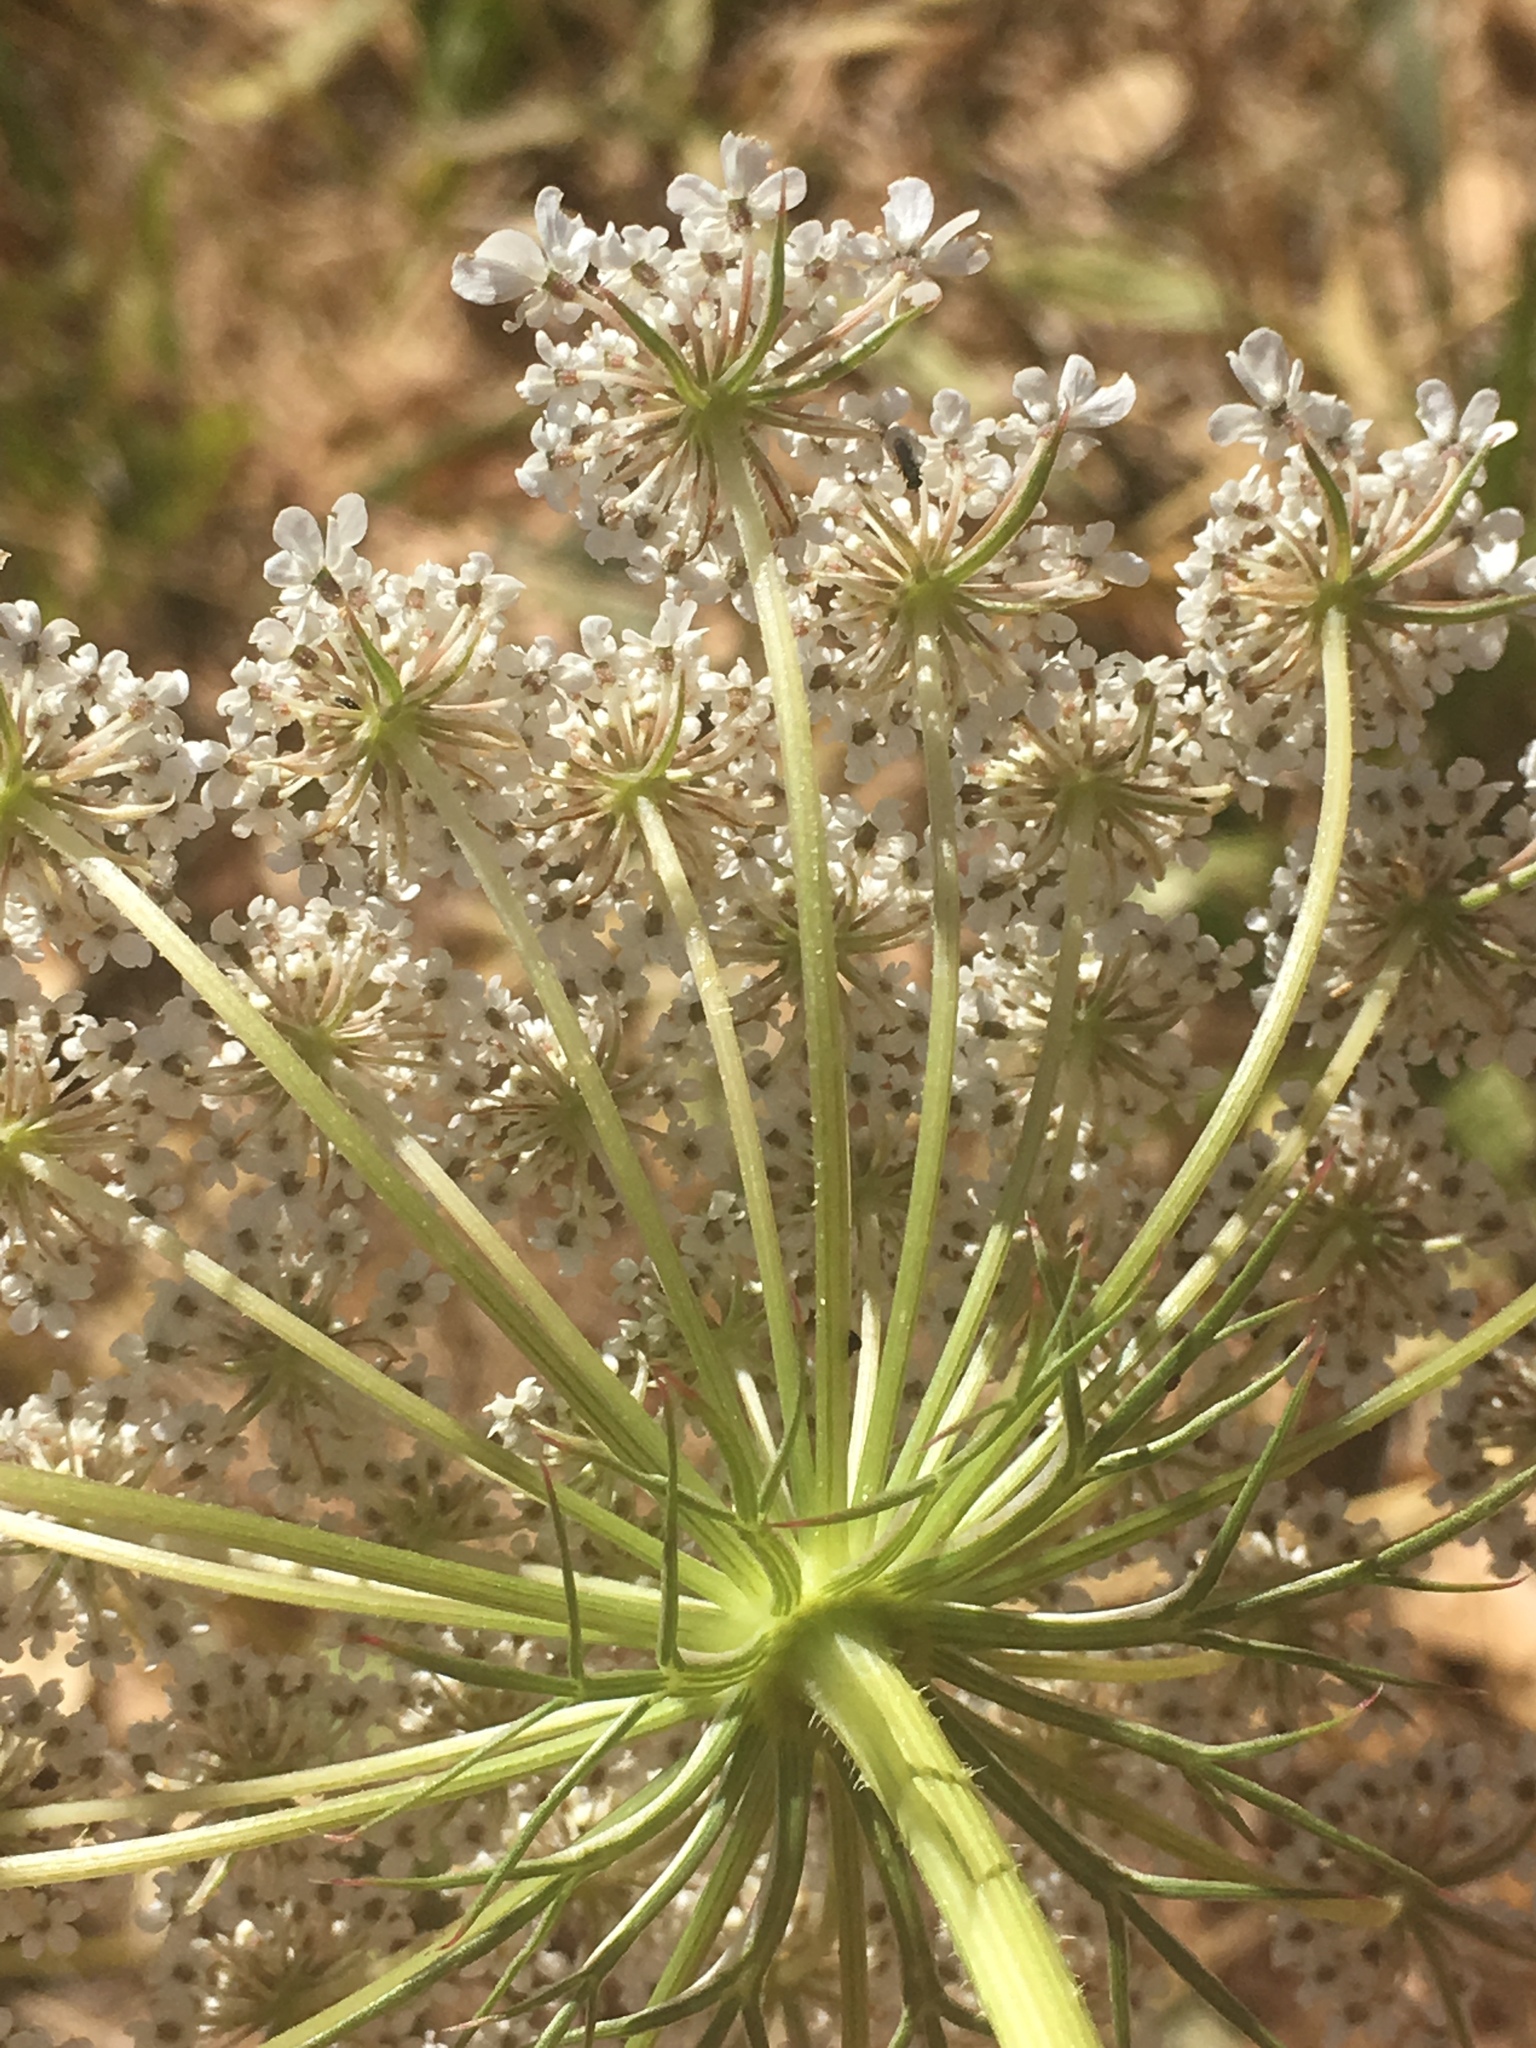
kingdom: Plantae
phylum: Tracheophyta
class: Magnoliopsida
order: Apiales
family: Apiaceae
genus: Daucus
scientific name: Daucus carota
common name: Wild carrot
